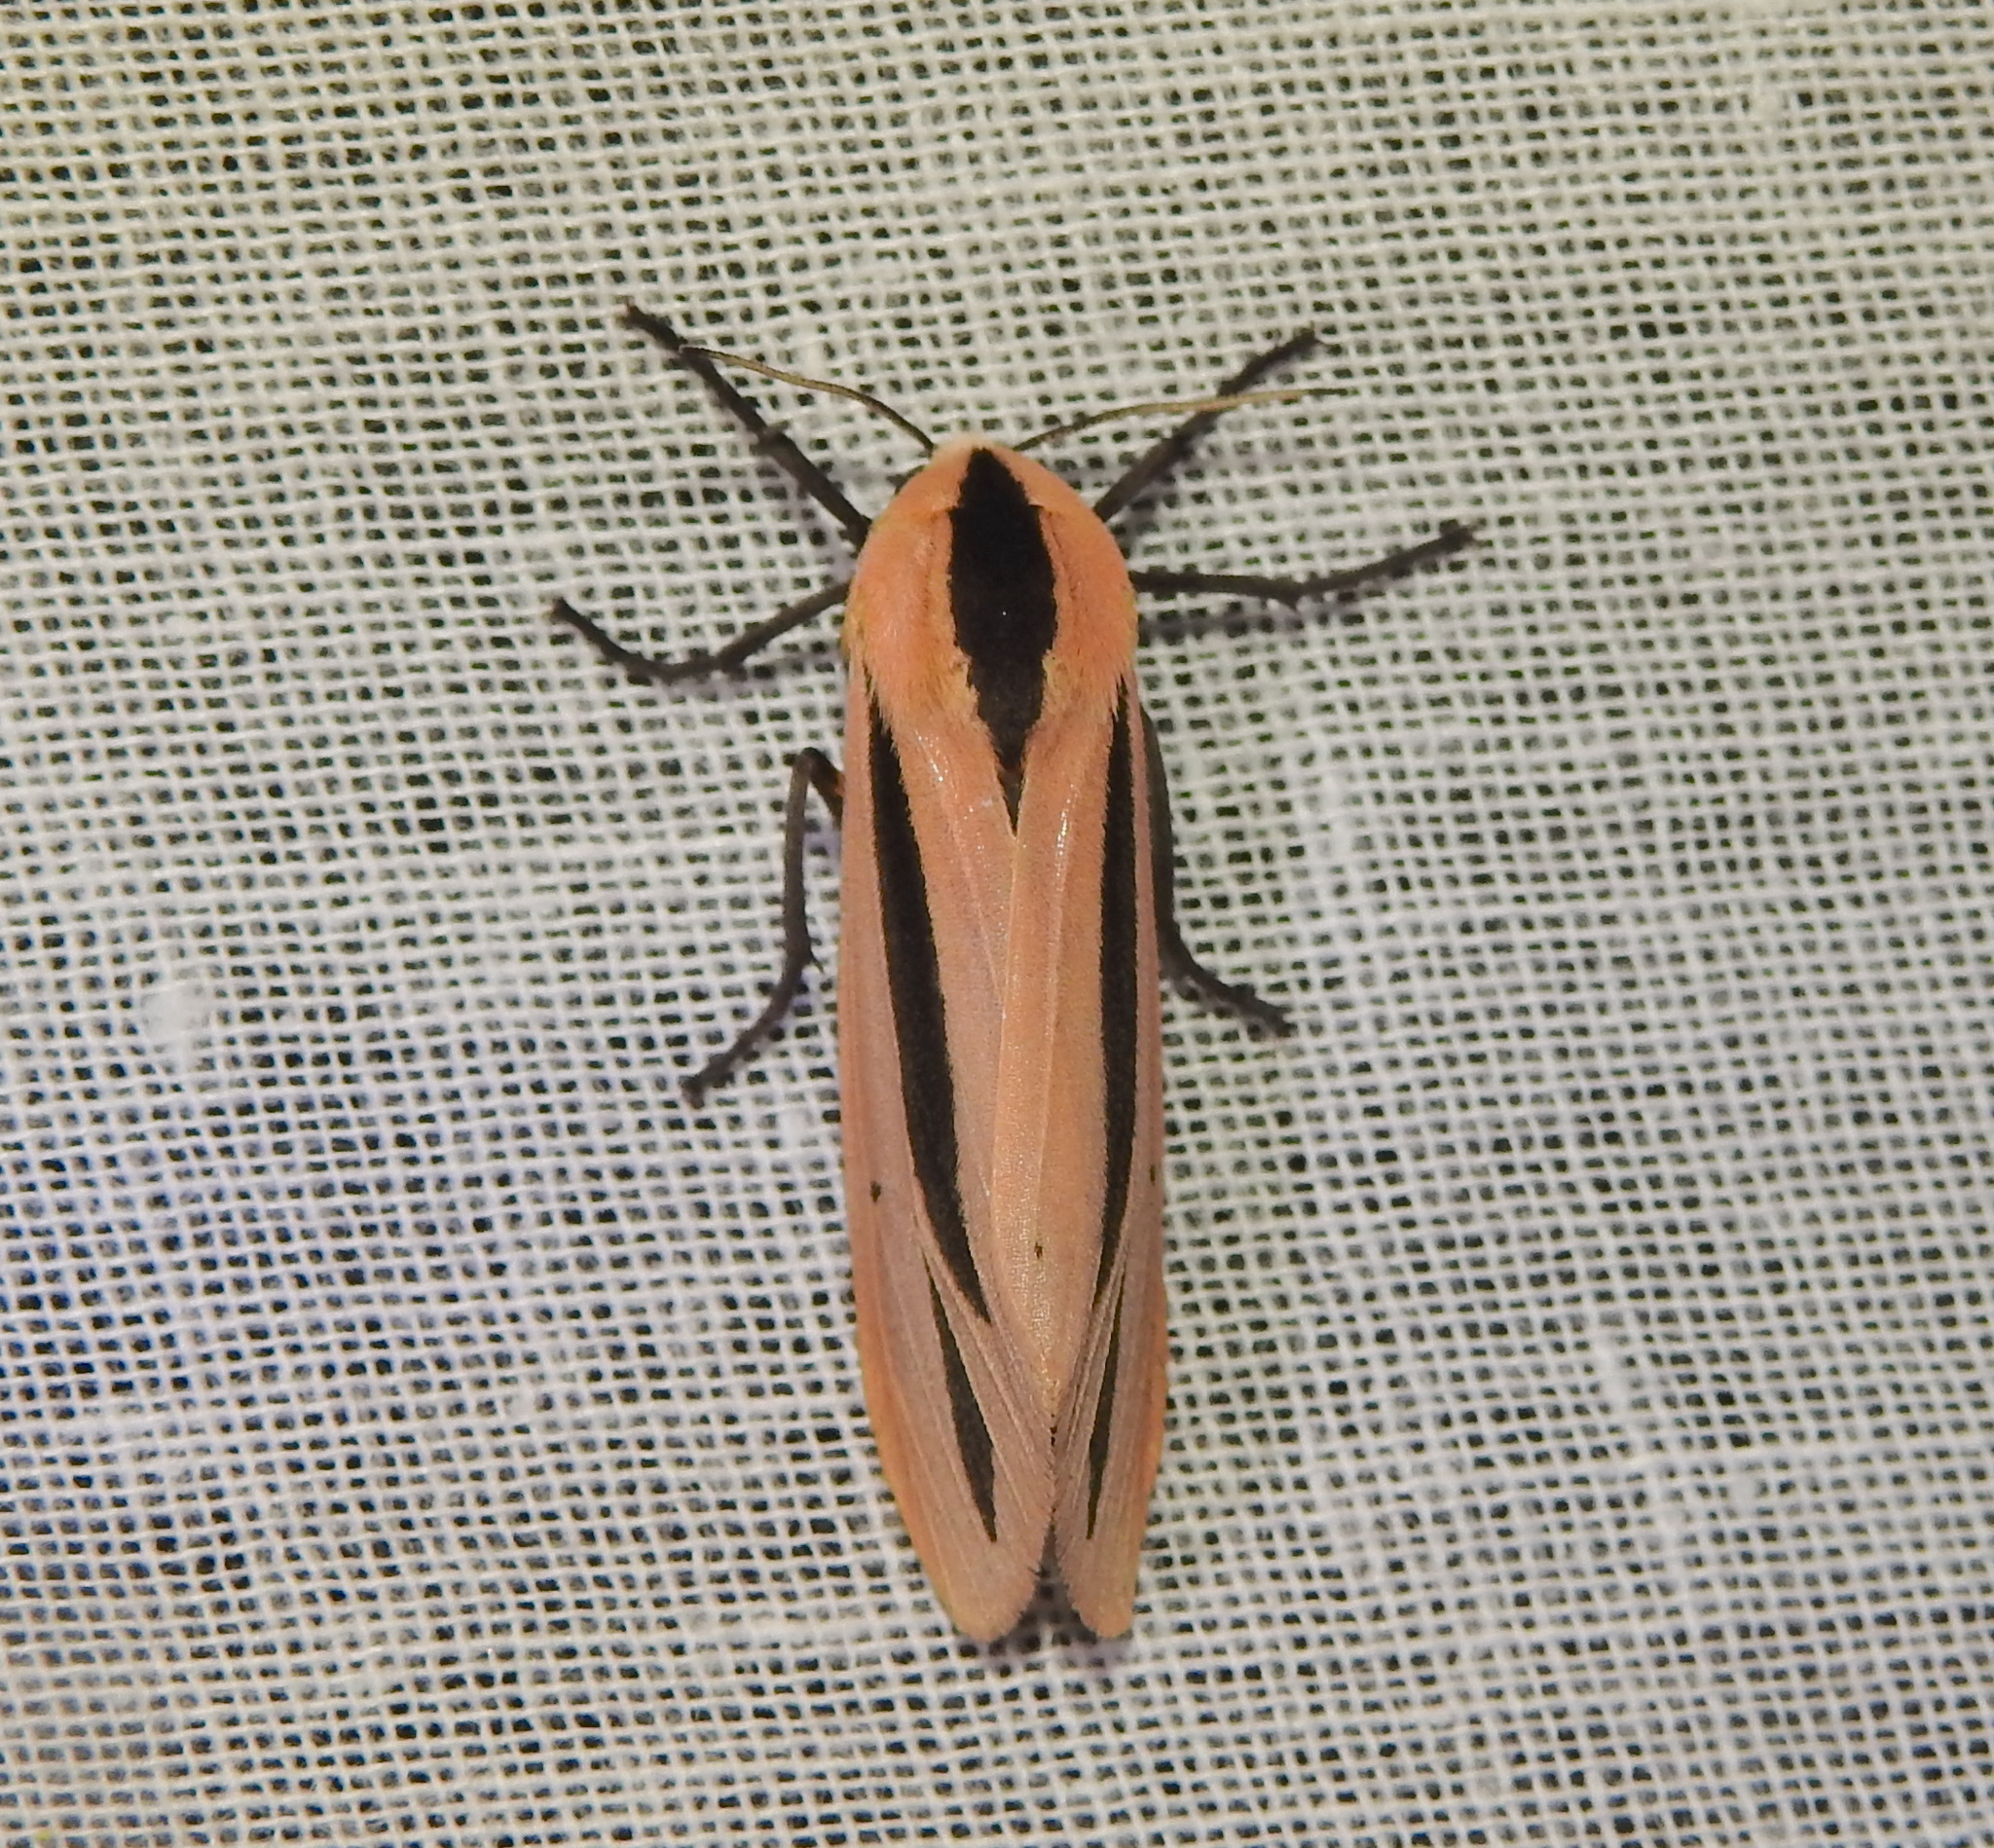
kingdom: Animalia
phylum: Arthropoda
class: Insecta
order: Lepidoptera
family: Erebidae
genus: Creatonotos
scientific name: Creatonotos
